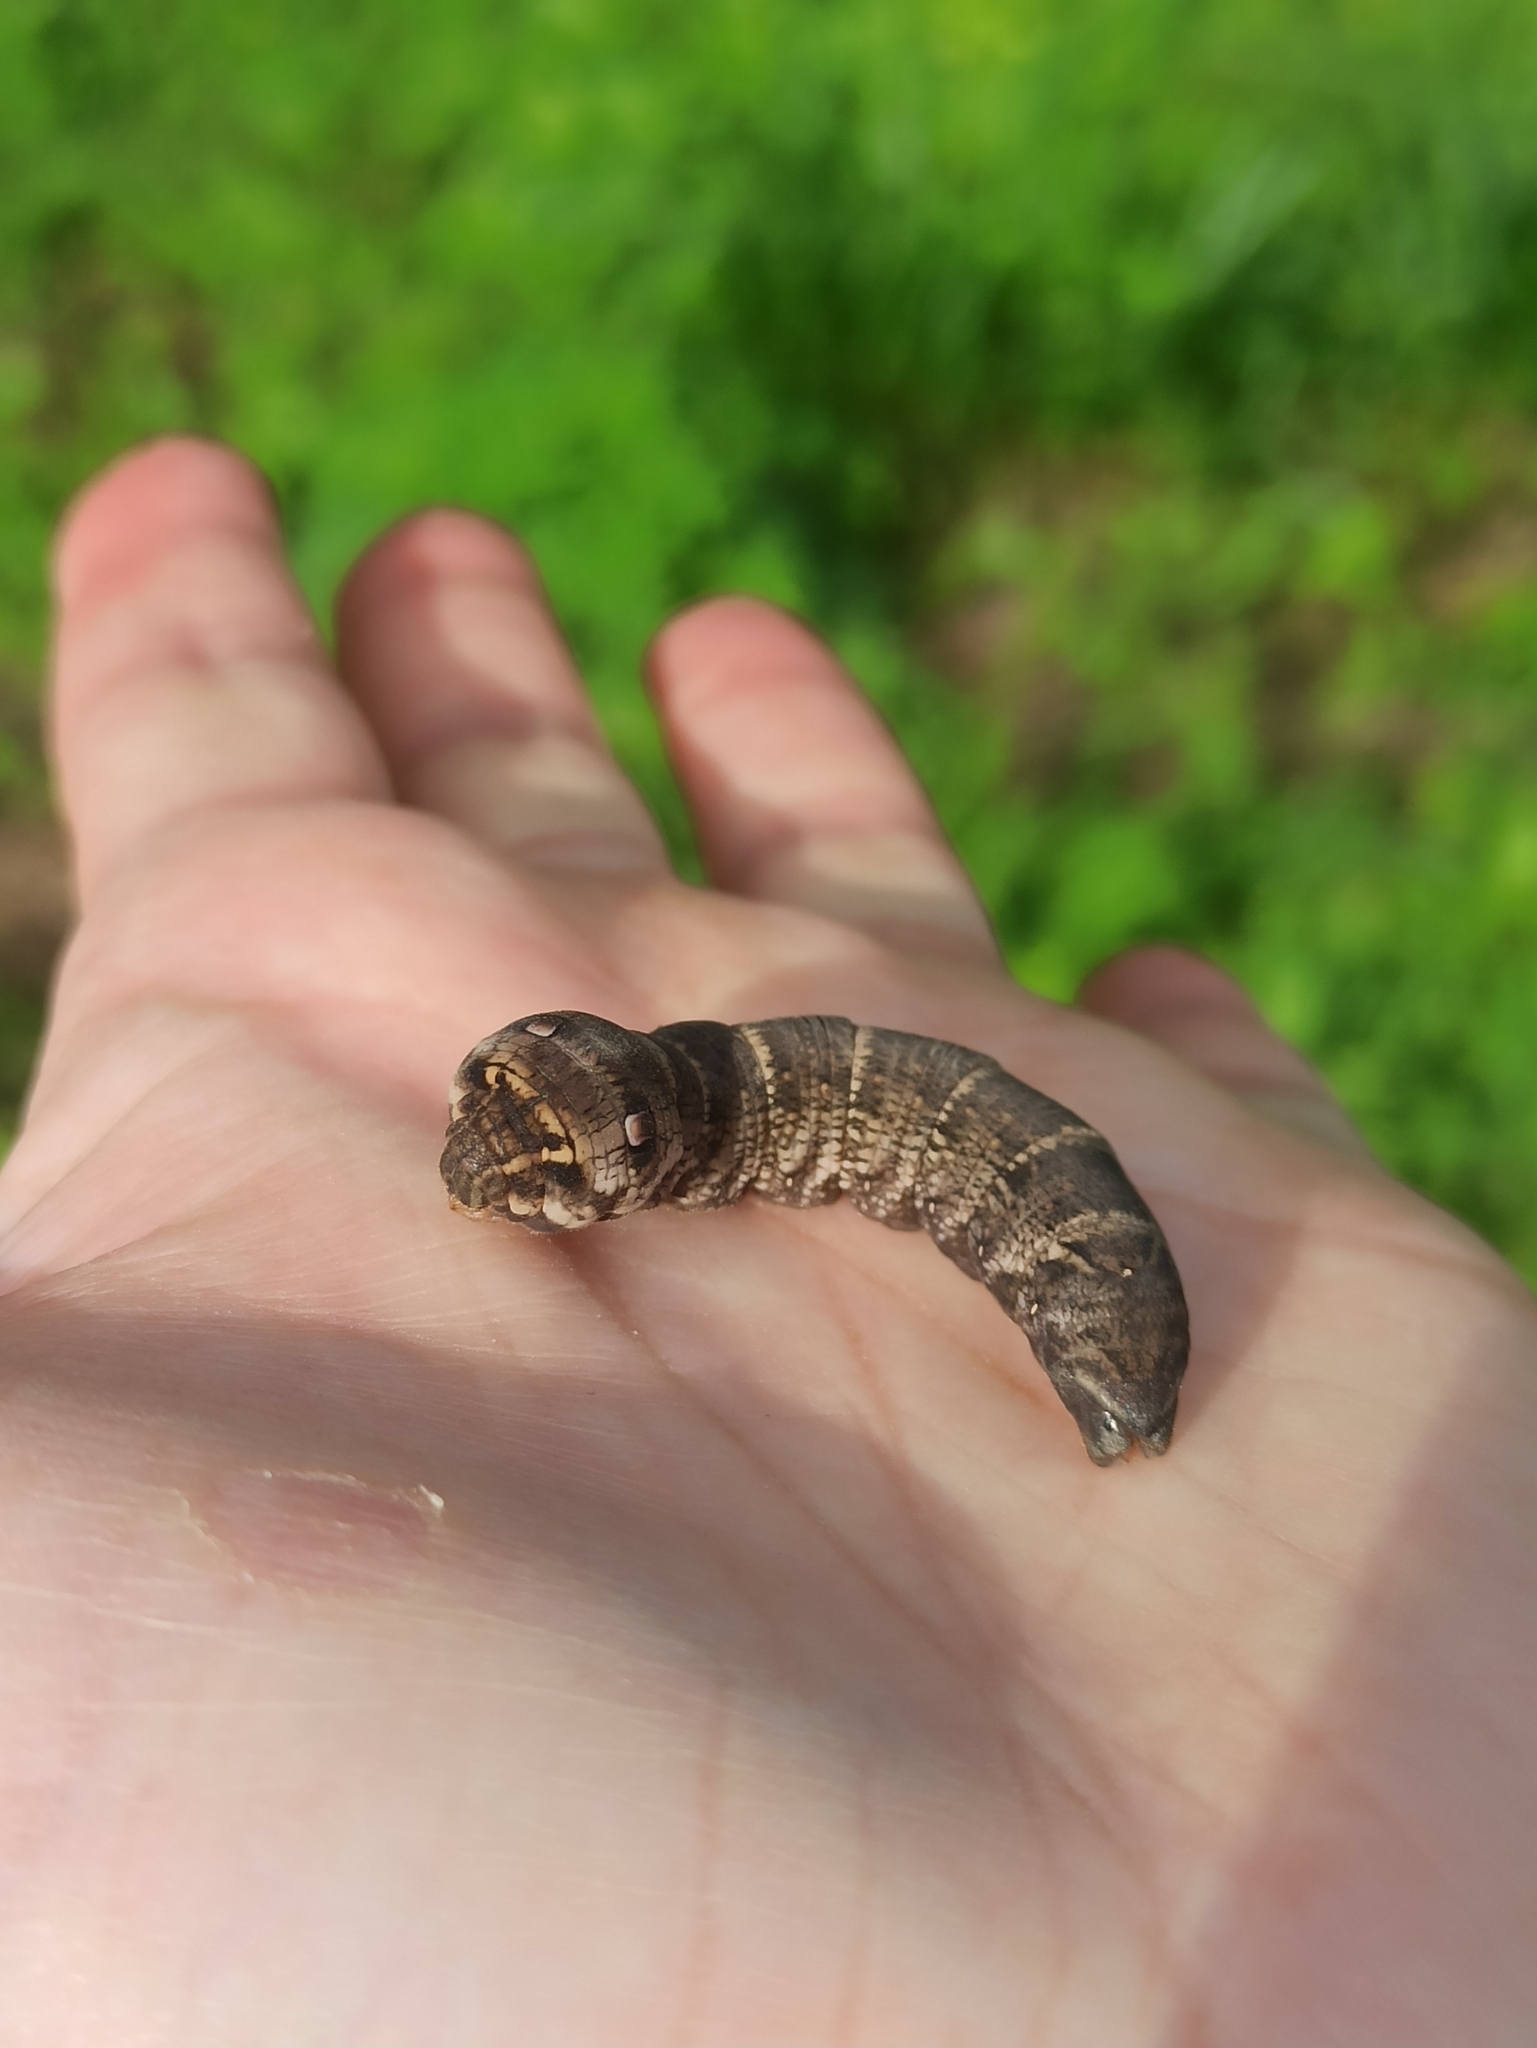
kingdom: Animalia
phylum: Arthropoda
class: Insecta
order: Lepidoptera
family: Sphingidae
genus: Deilephila
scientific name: Deilephila porcellus
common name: Small elephant hawk-moth
